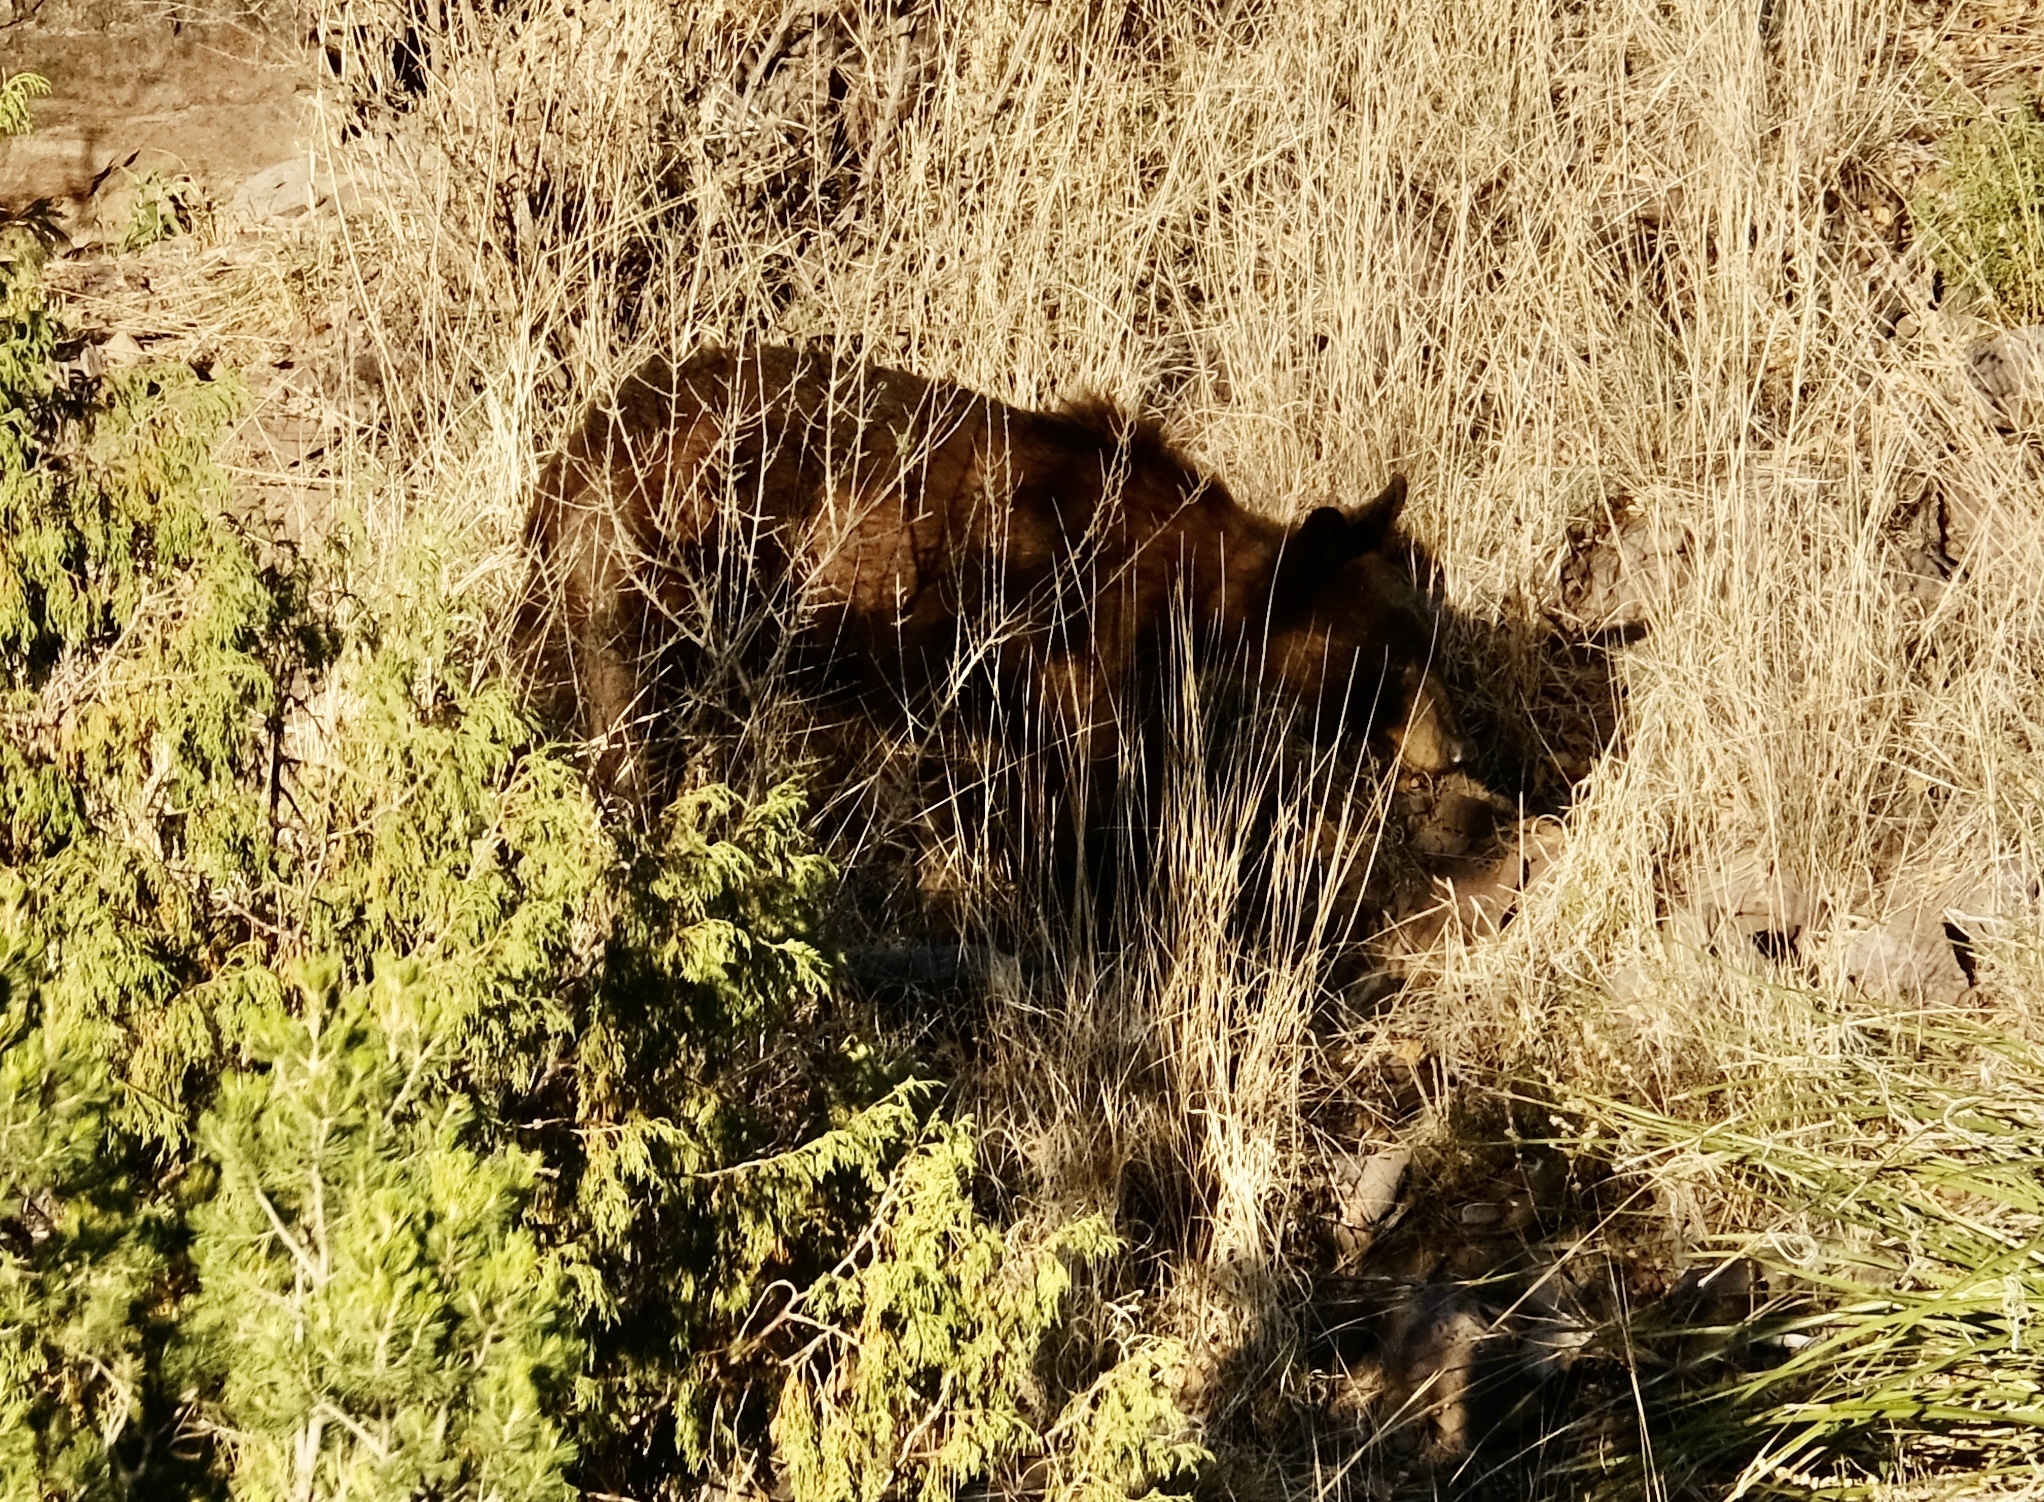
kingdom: Animalia
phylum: Chordata
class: Mammalia
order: Carnivora
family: Ursidae
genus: Ursus
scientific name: Ursus americanus
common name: American black bear
